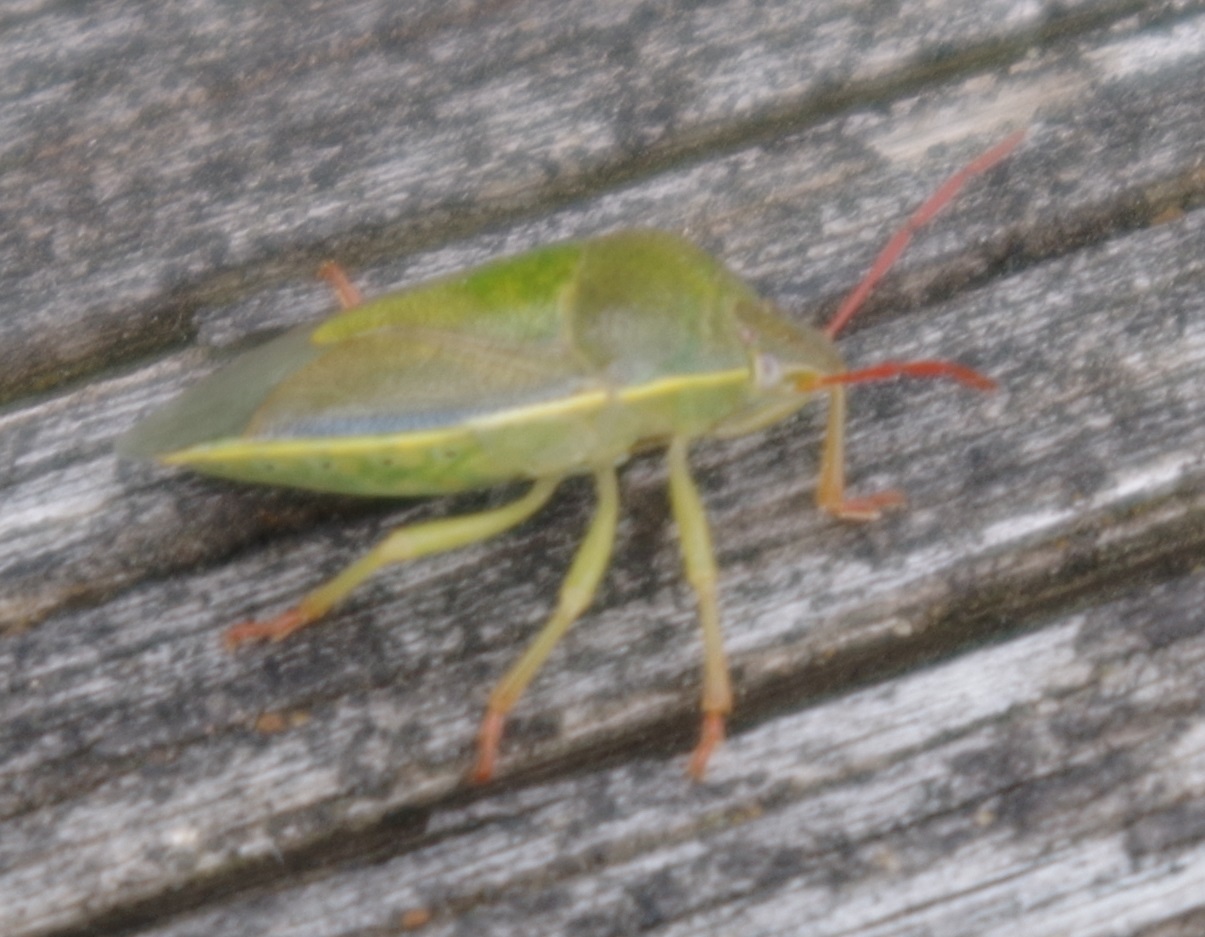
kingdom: Animalia
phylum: Arthropoda
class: Insecta
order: Hemiptera
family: Pentatomidae
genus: Piezodorus
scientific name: Piezodorus lituratus
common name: Stink bug
